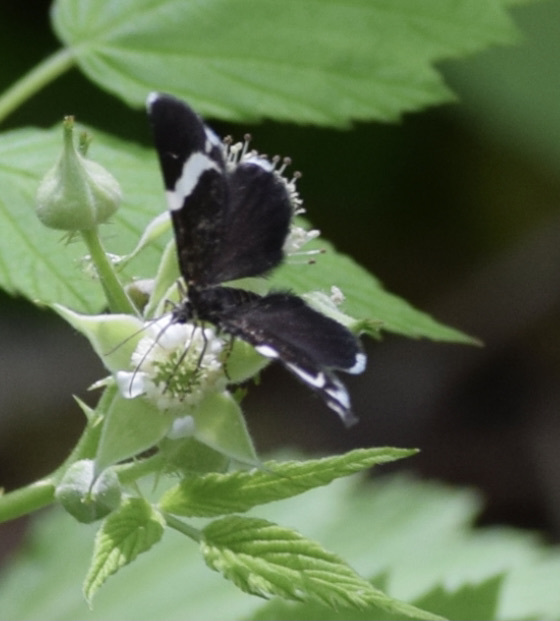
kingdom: Animalia
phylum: Arthropoda
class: Insecta
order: Lepidoptera
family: Geometridae
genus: Trichodezia
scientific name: Trichodezia albovittata
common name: White striped black
